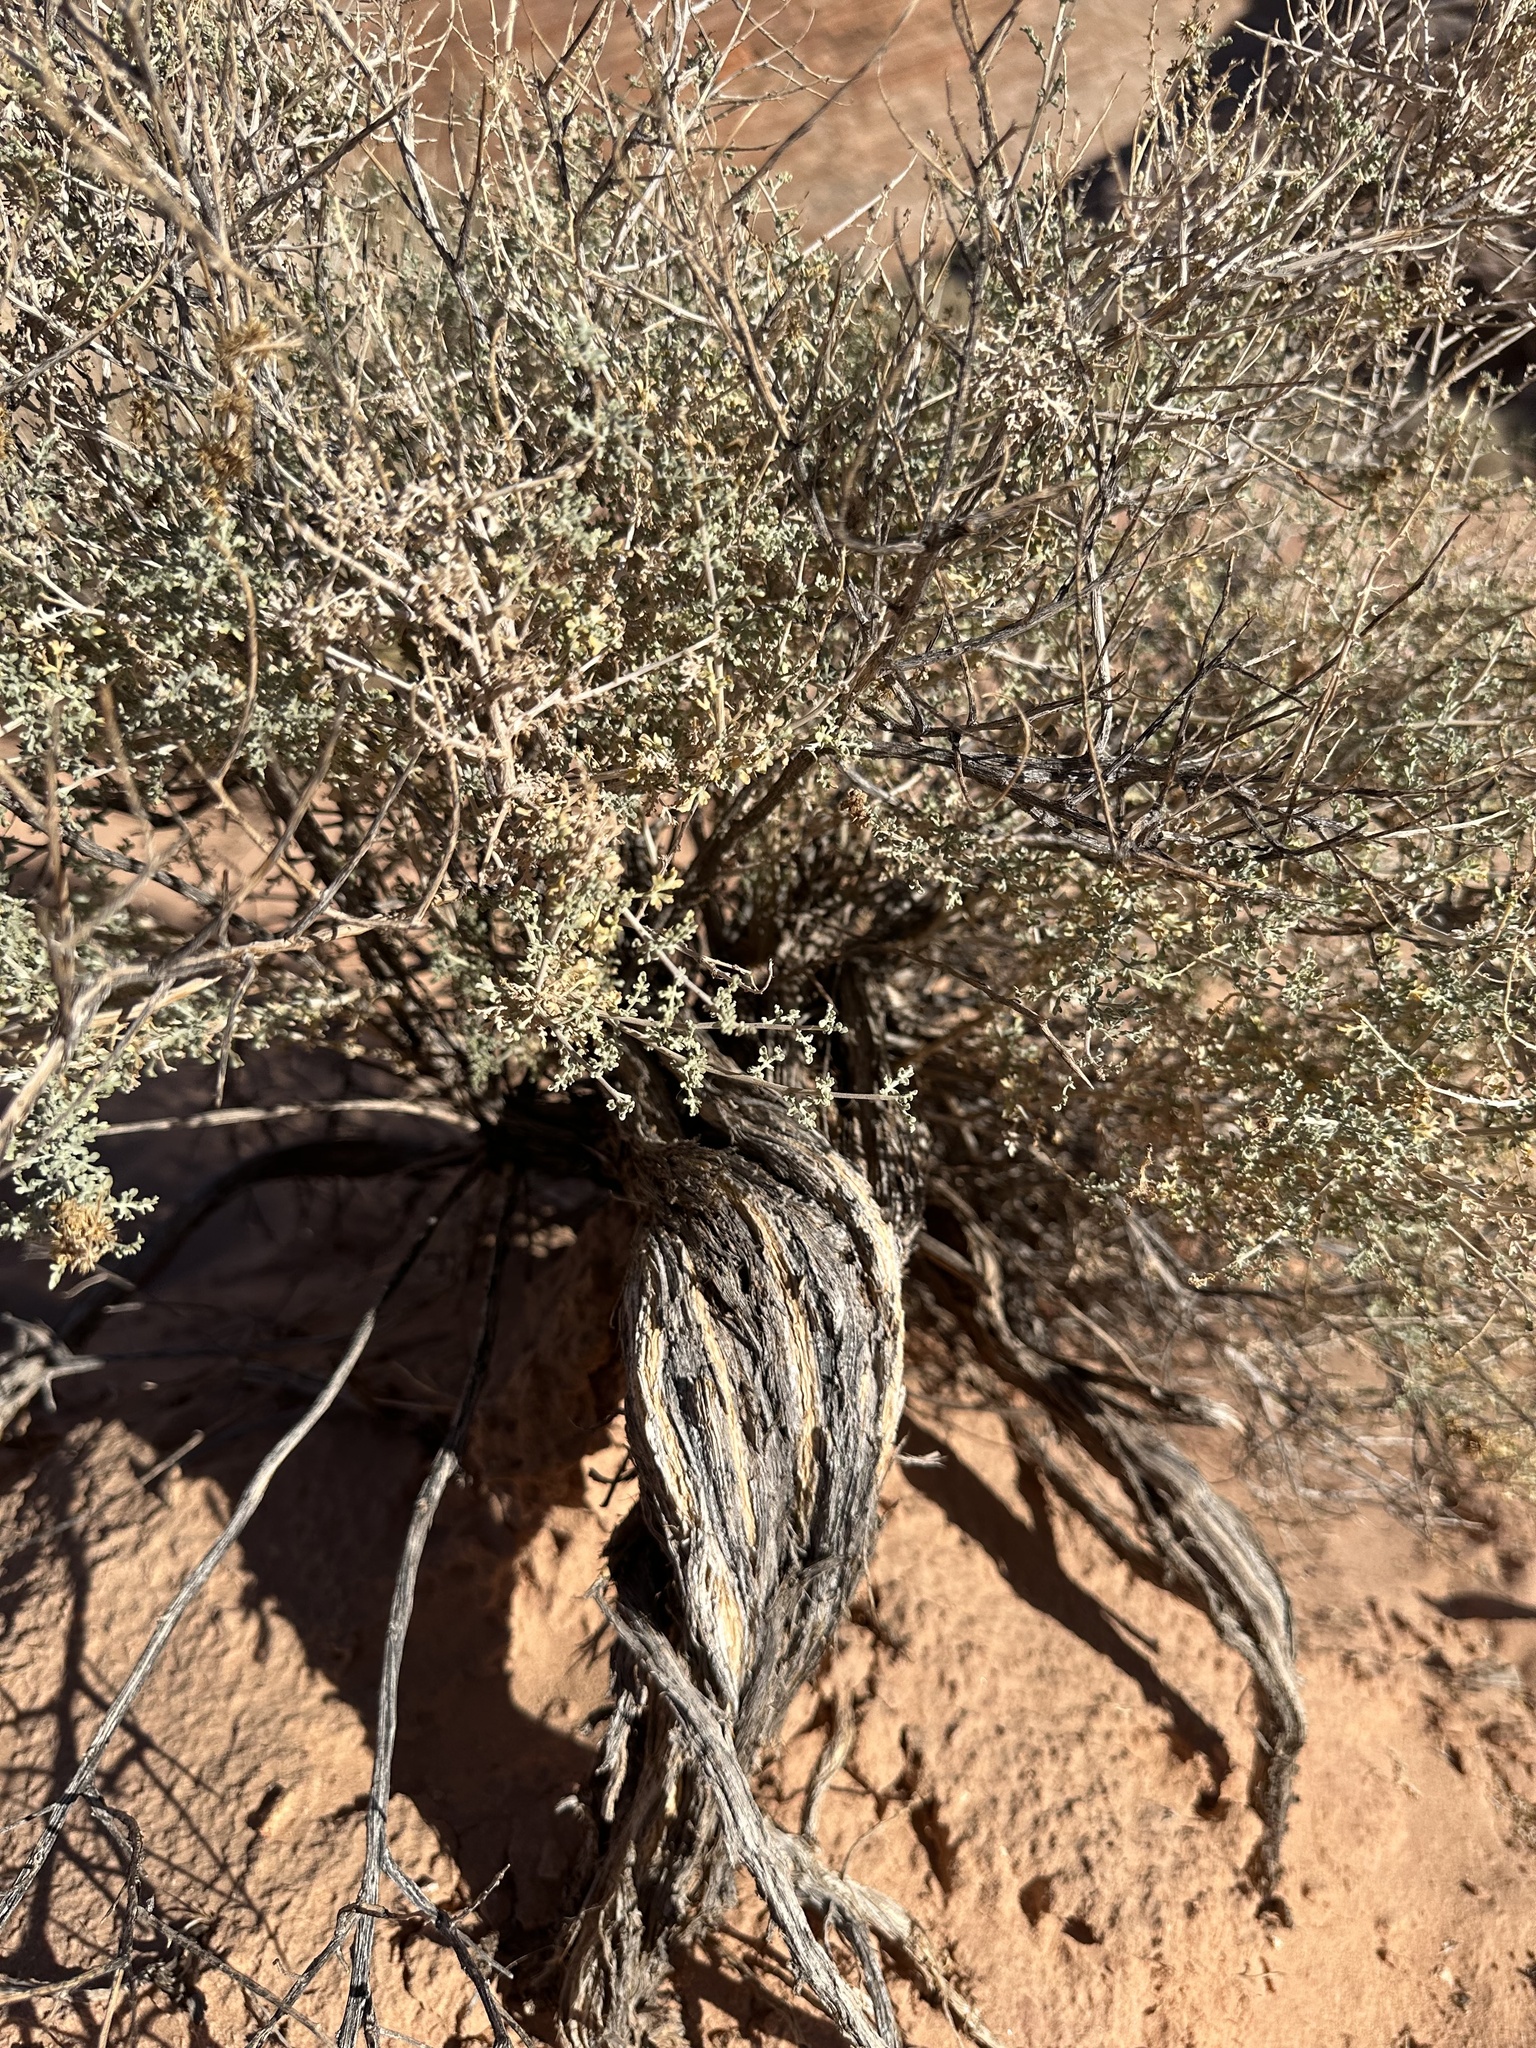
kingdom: Plantae
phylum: Tracheophyta
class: Magnoliopsida
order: Asterales
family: Asteraceae
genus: Ambrosia
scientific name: Ambrosia dumosa
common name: Bur-sage
